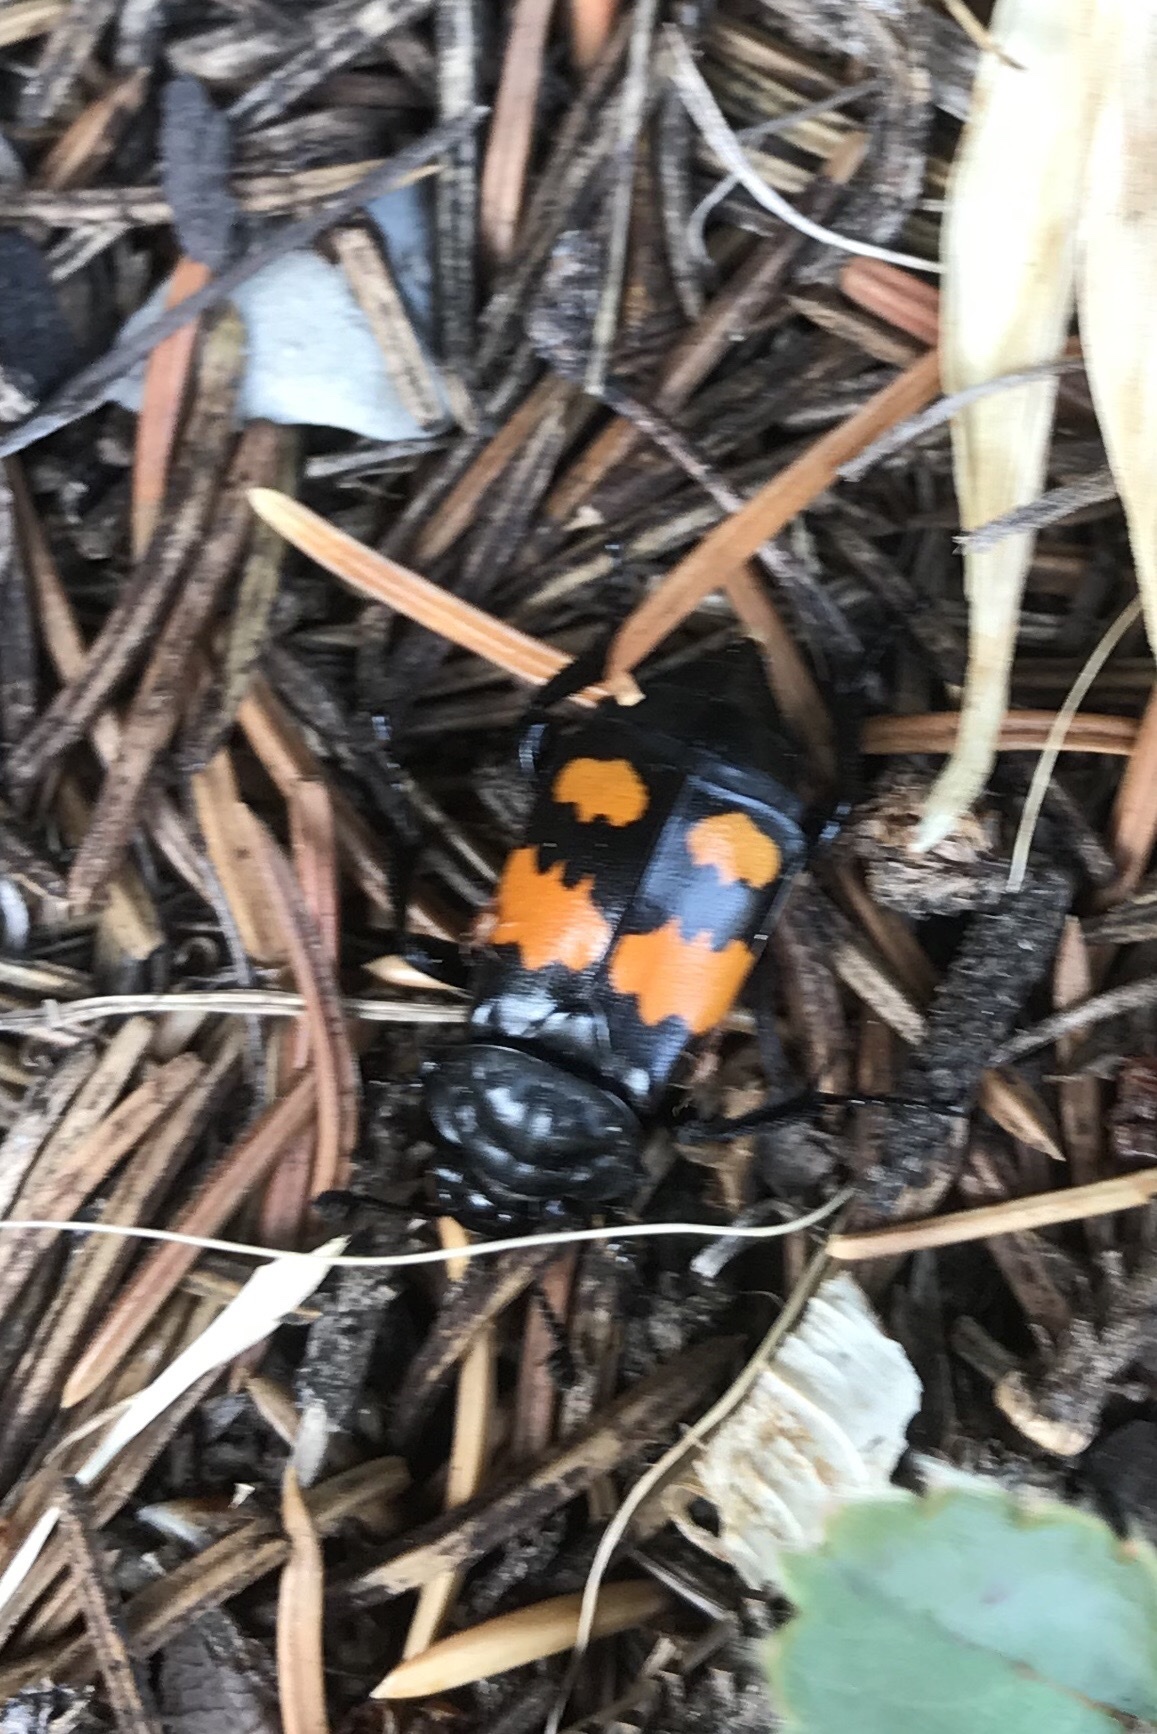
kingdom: Animalia
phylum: Arthropoda
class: Insecta
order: Coleoptera
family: Staphylinidae
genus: Nicrophorus
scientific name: Nicrophorus defodiens
